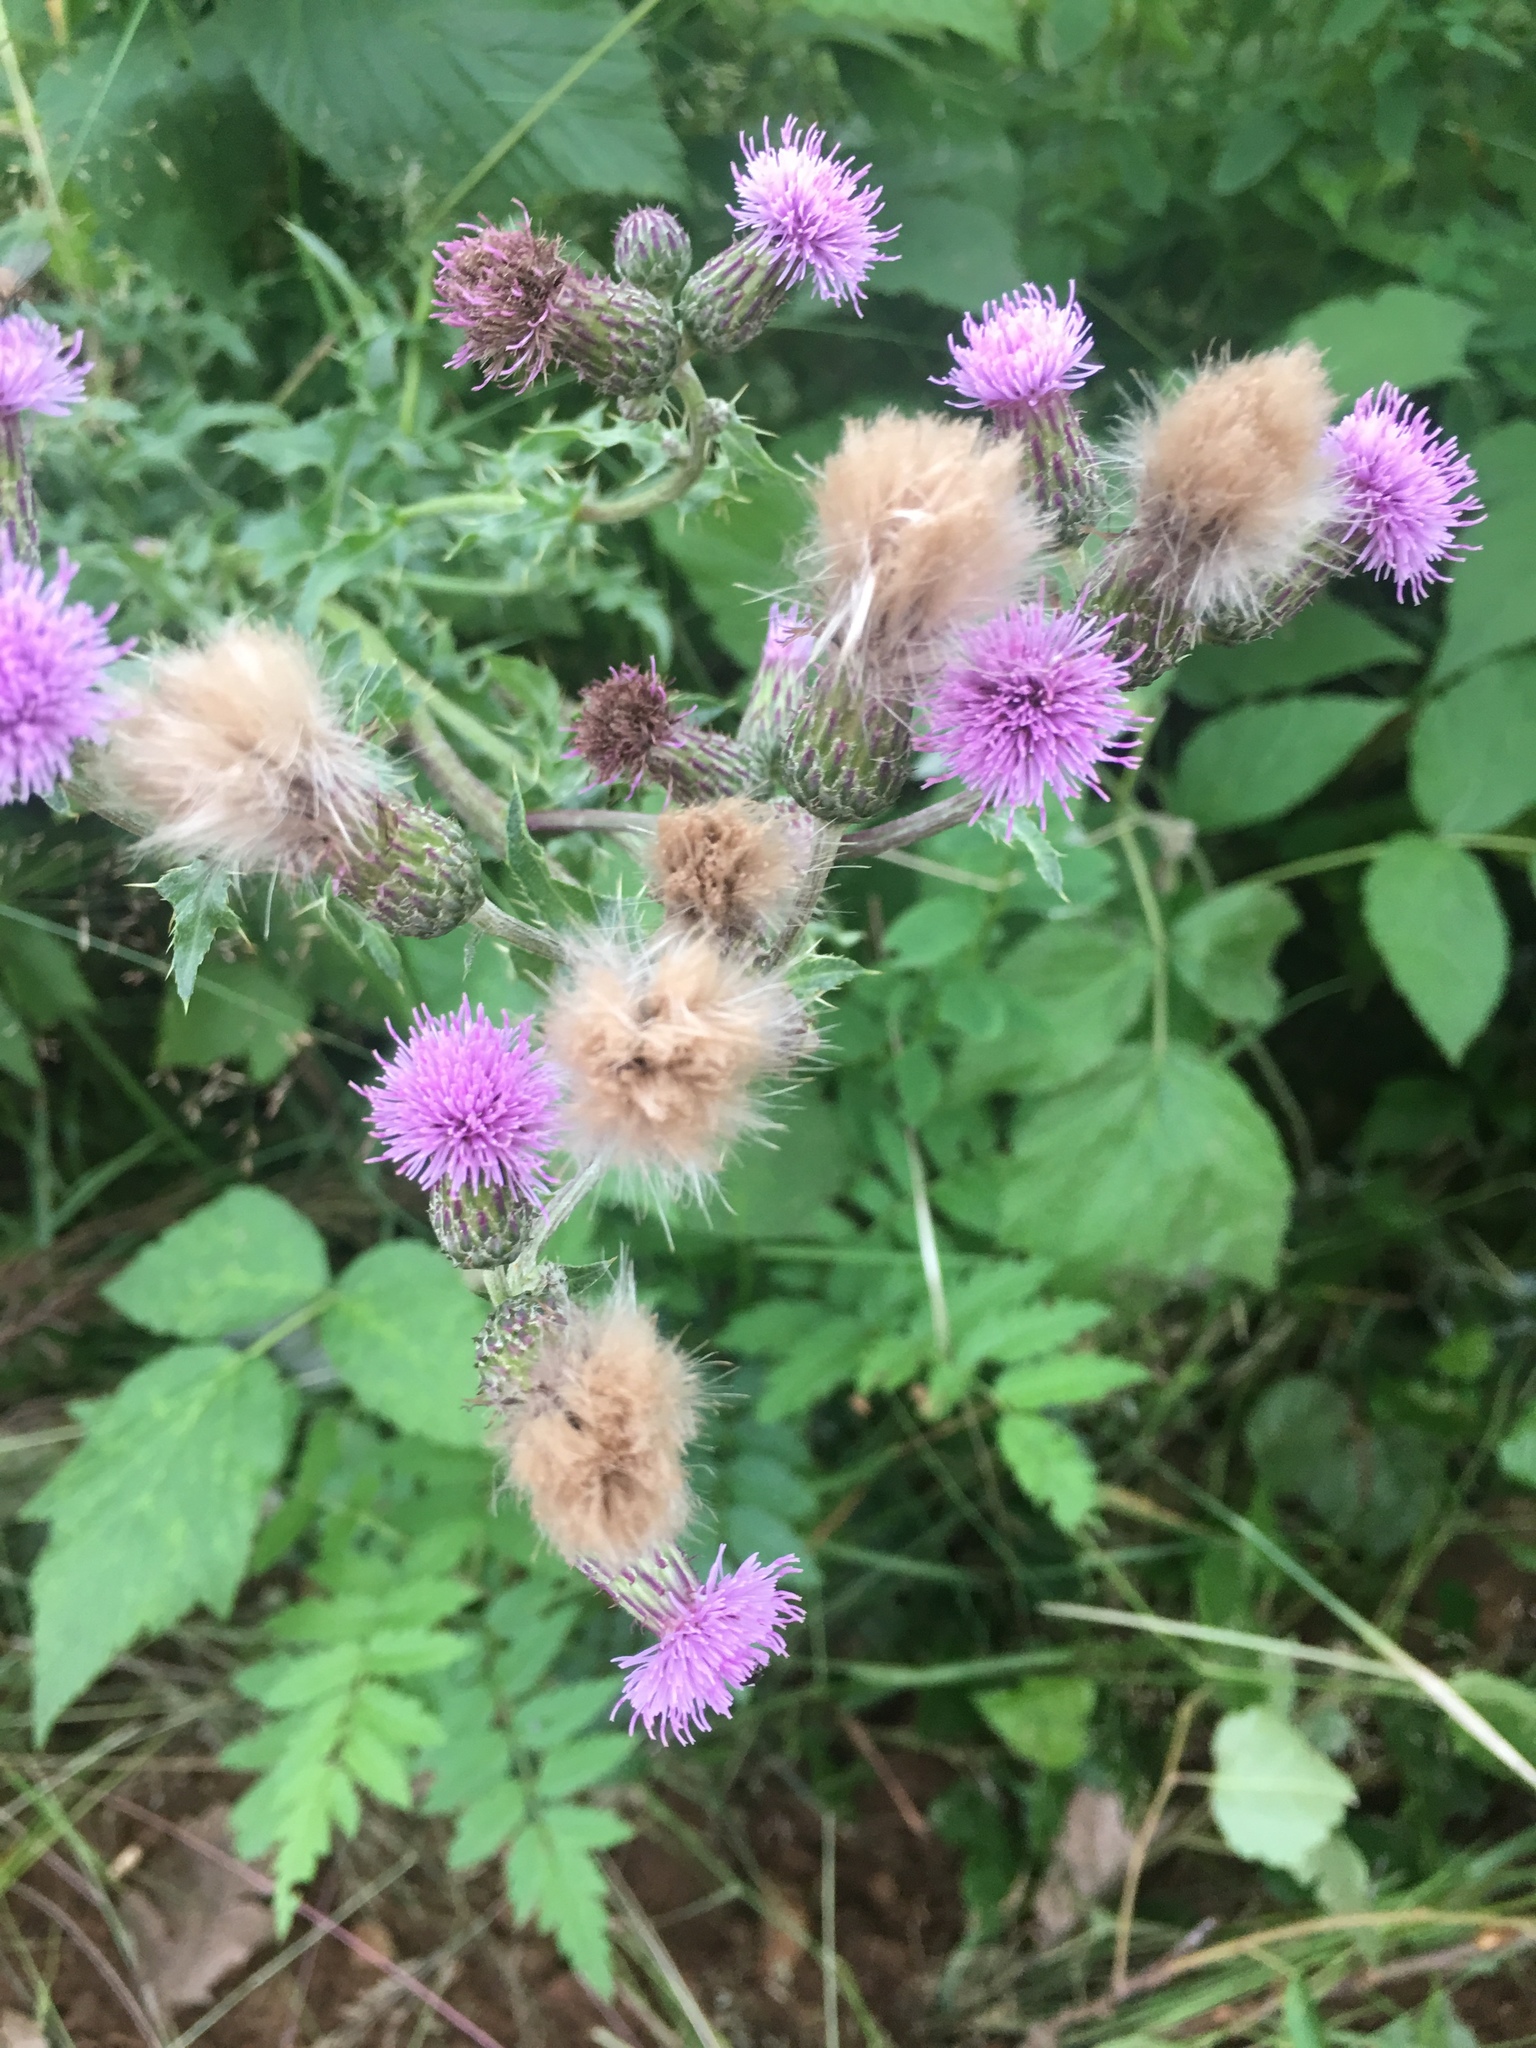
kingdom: Plantae
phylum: Tracheophyta
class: Magnoliopsida
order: Asterales
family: Asteraceae
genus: Cirsium
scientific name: Cirsium arvense
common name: Creeping thistle
